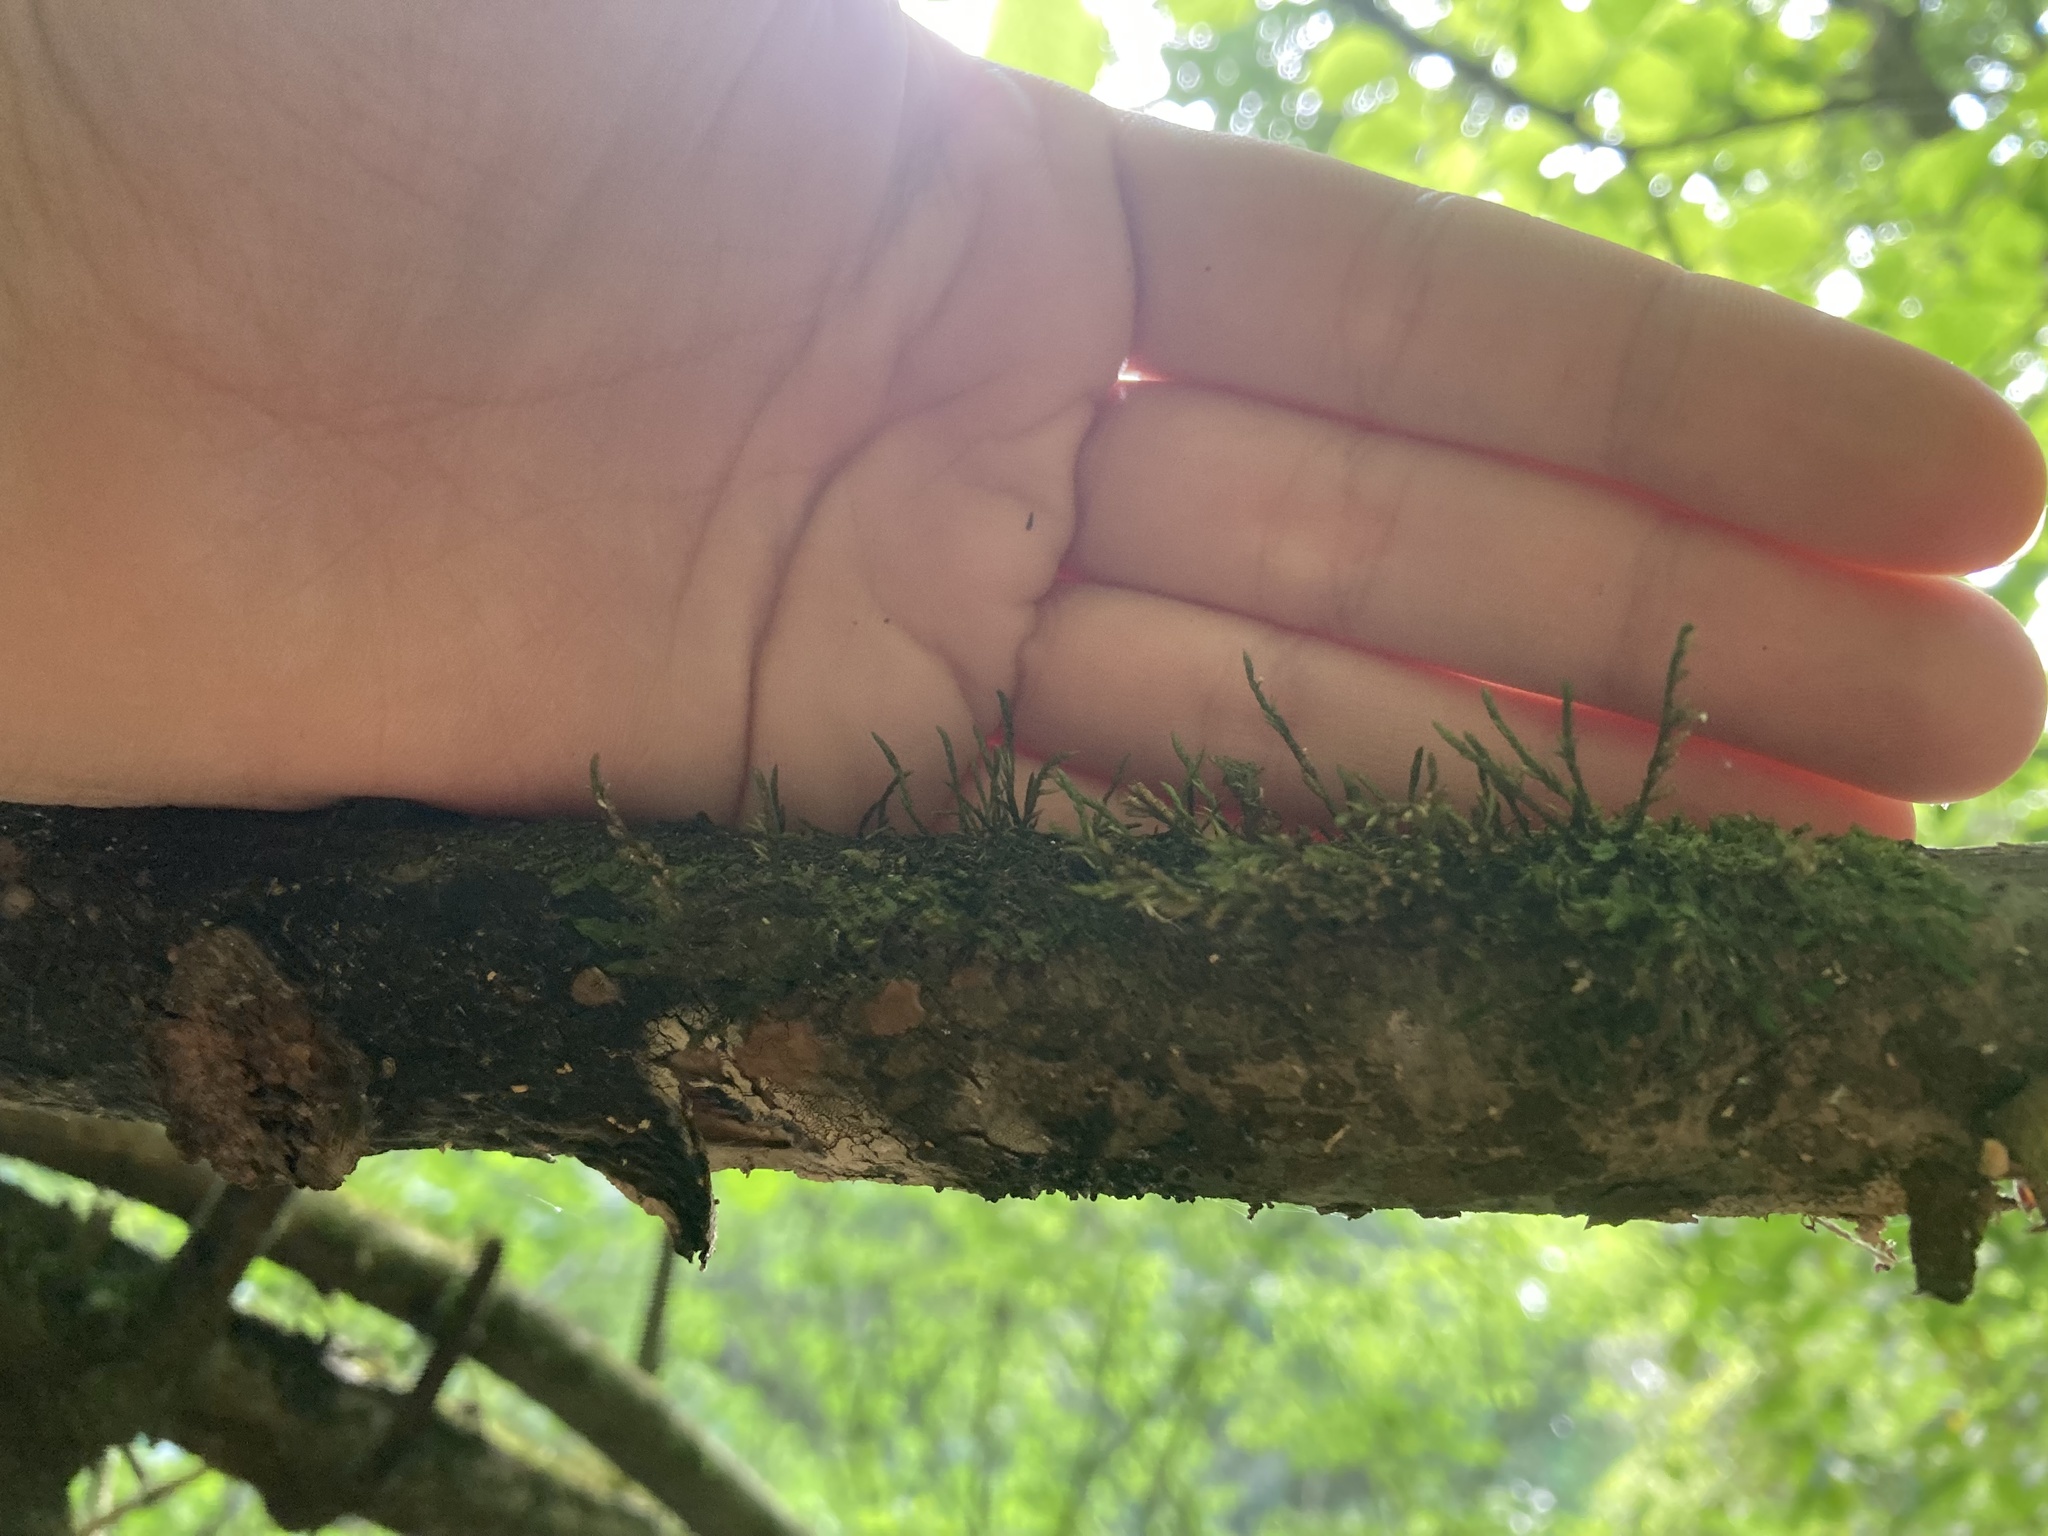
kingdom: Plantae
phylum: Bryophyta
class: Bryopsida
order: Hypnales
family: Cryphaeaceae
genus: Cryphaea
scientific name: Cryphaea heteromalla
